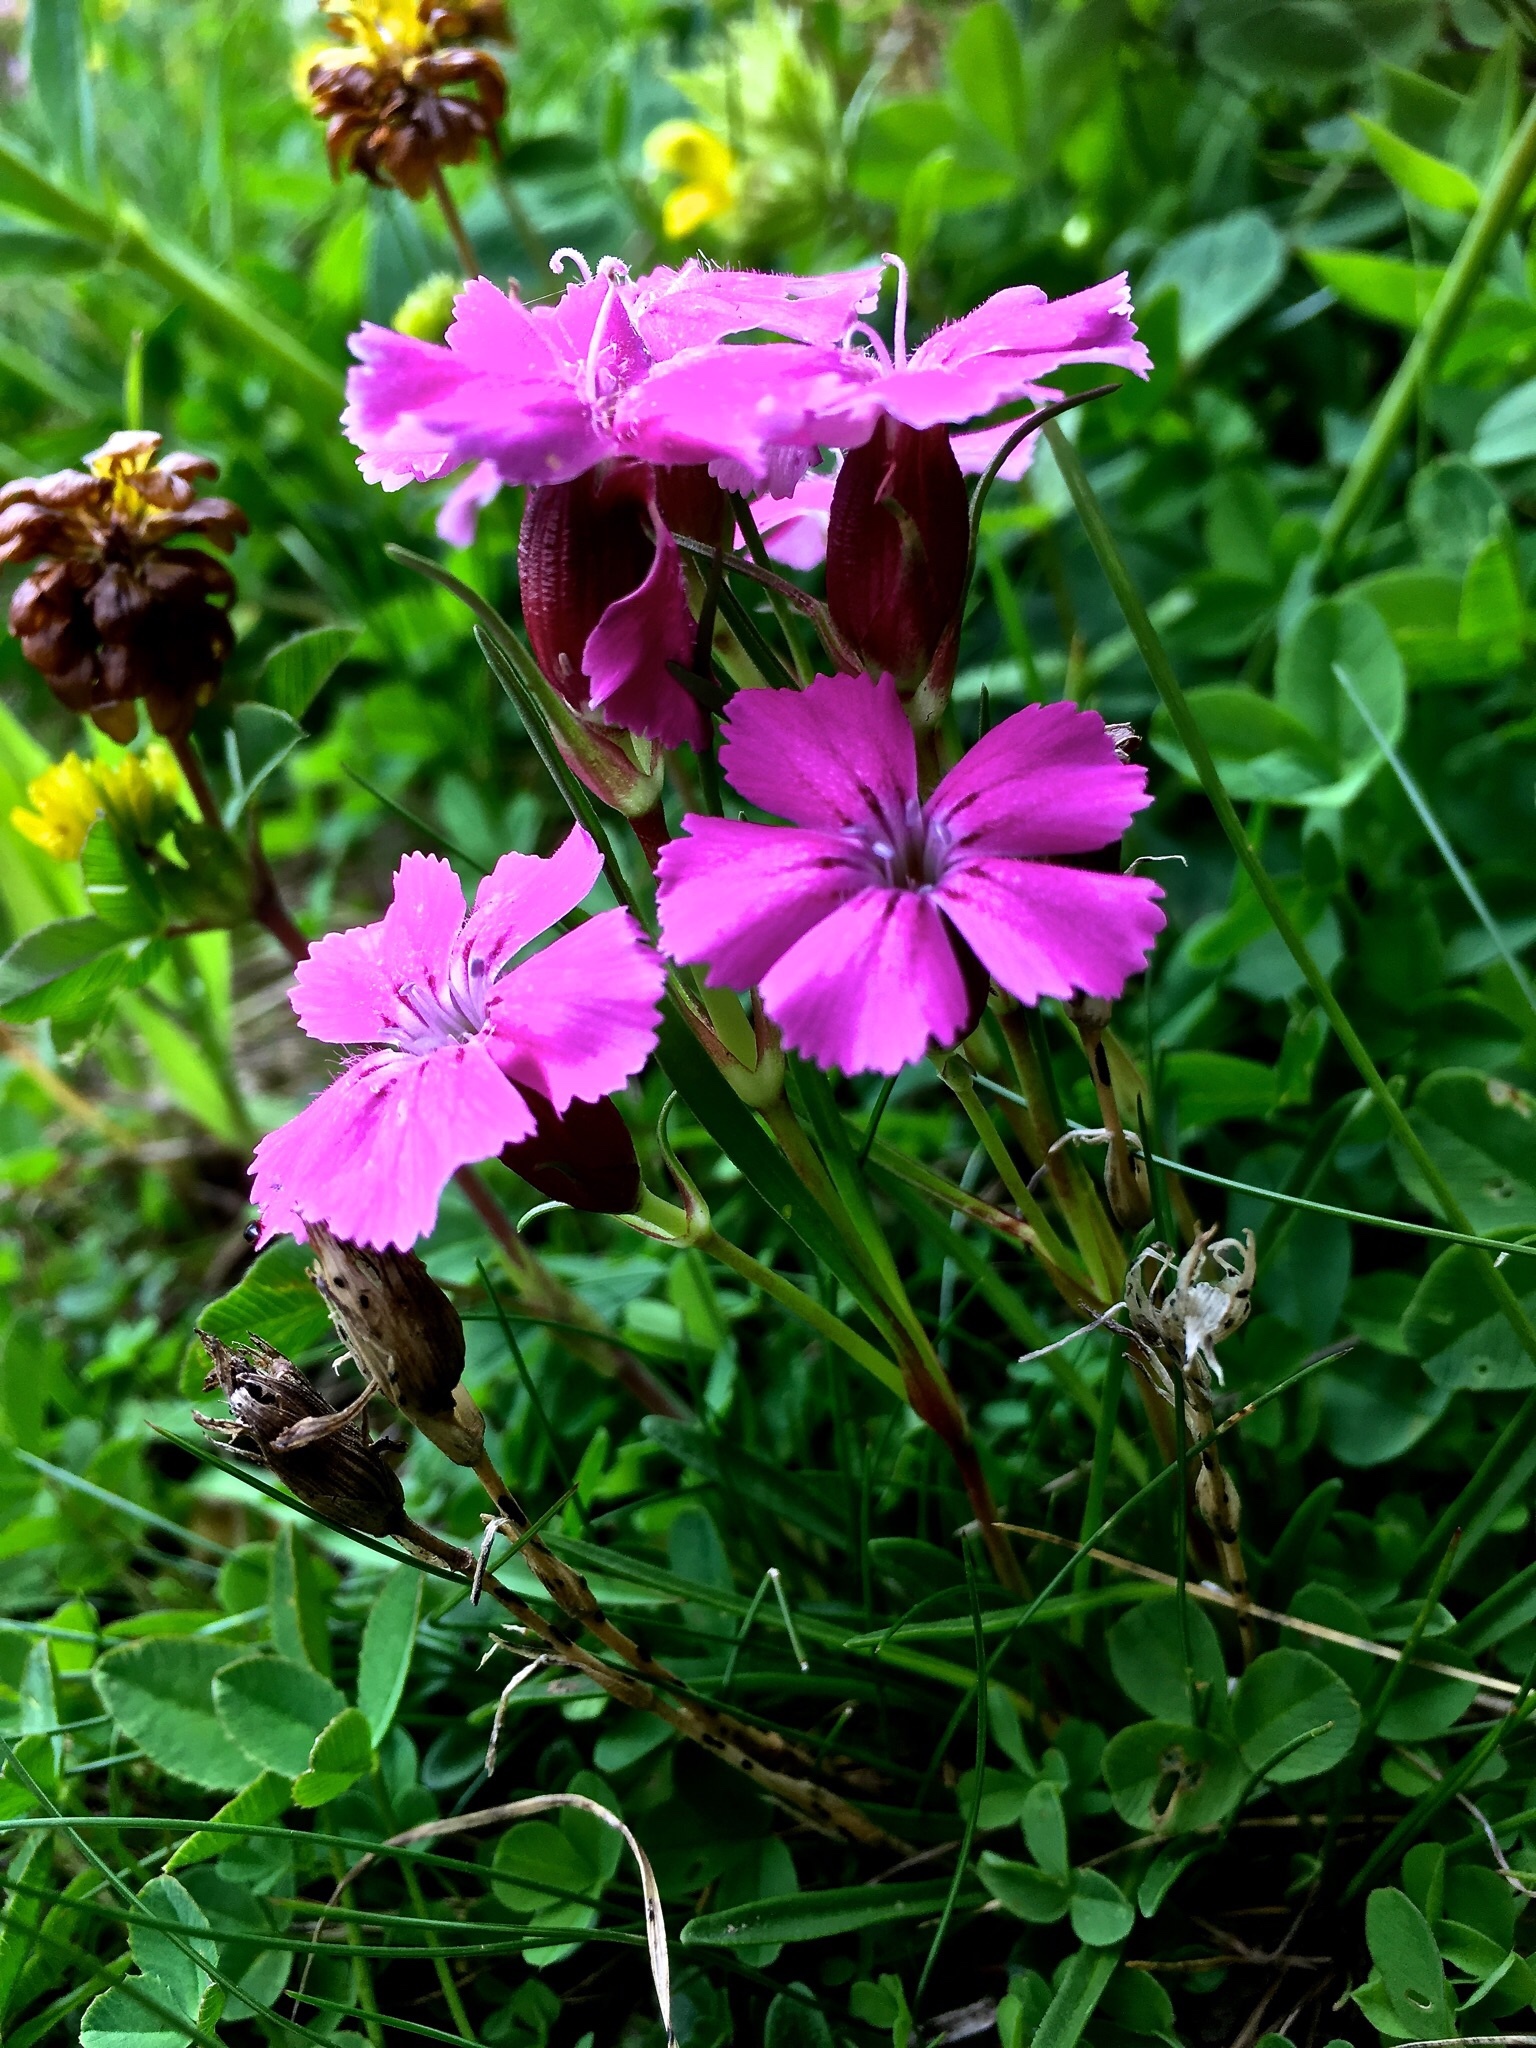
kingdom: Plantae
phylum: Tracheophyta
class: Magnoliopsida
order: Caryophyllales
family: Caryophyllaceae
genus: Dianthus
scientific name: Dianthus glacialis
